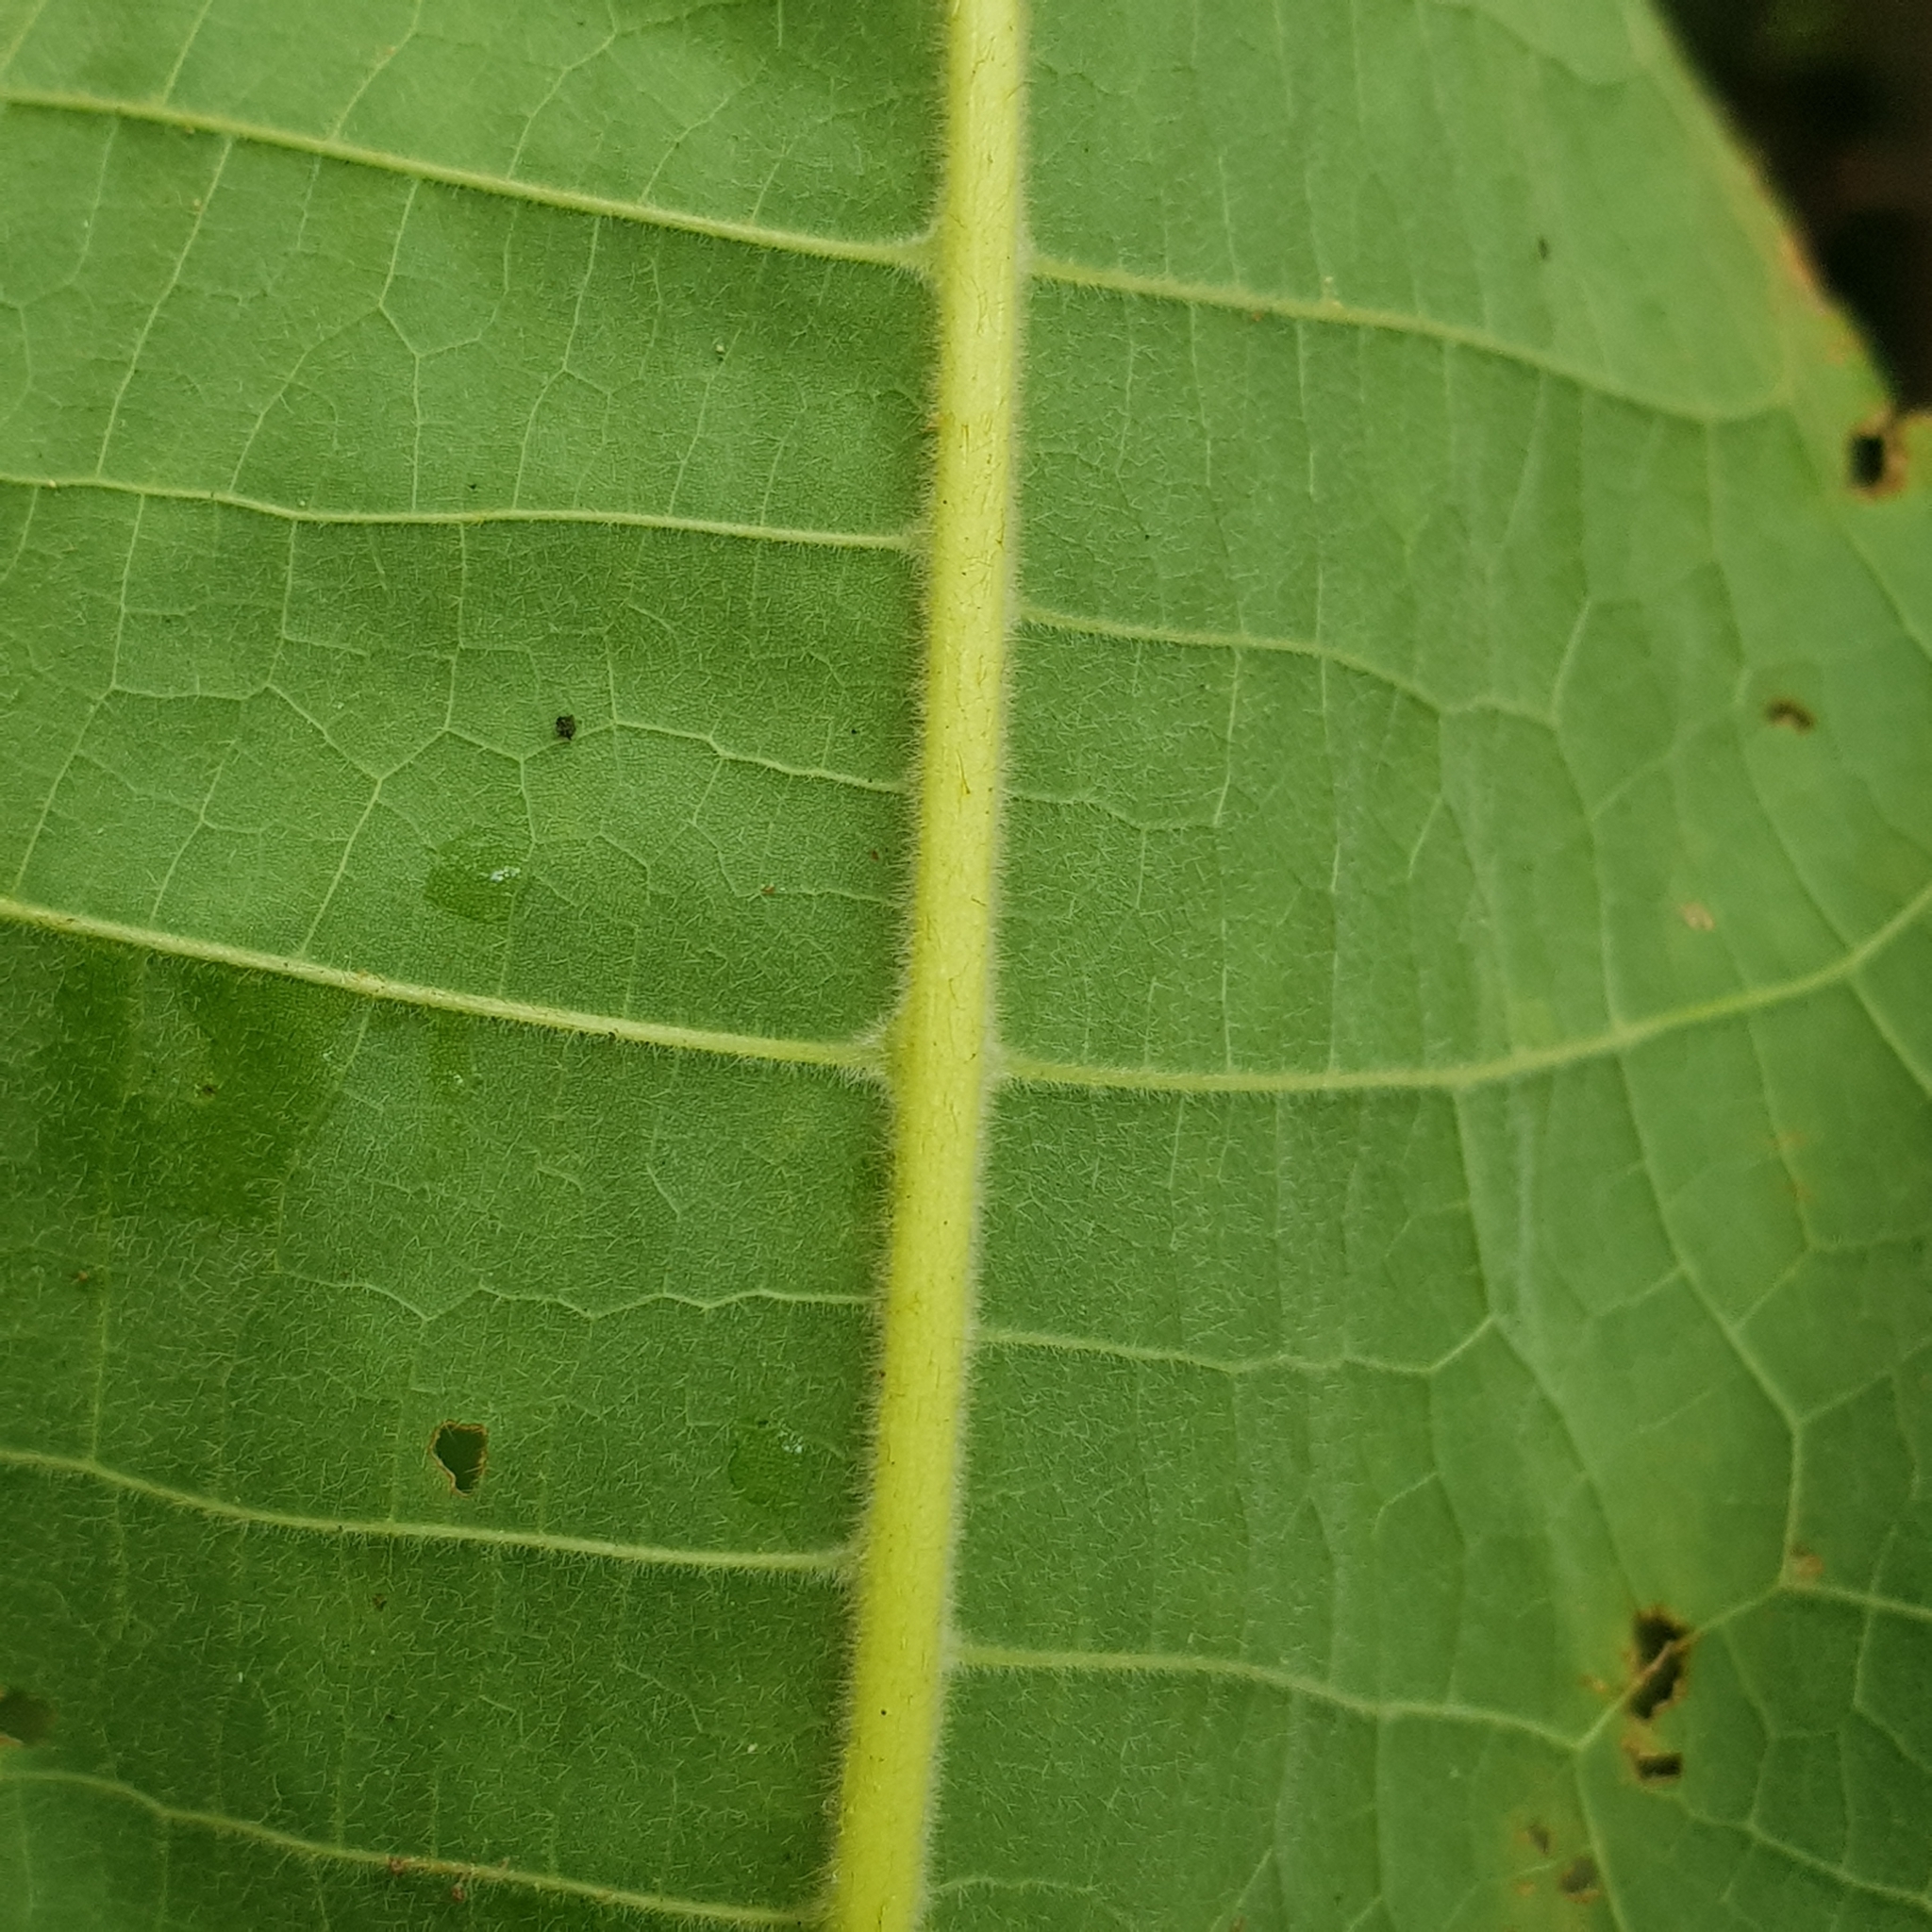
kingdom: Plantae
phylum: Tracheophyta
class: Magnoliopsida
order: Malvales
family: Malvaceae
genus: Sterculia
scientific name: Sterculia macrophylla
